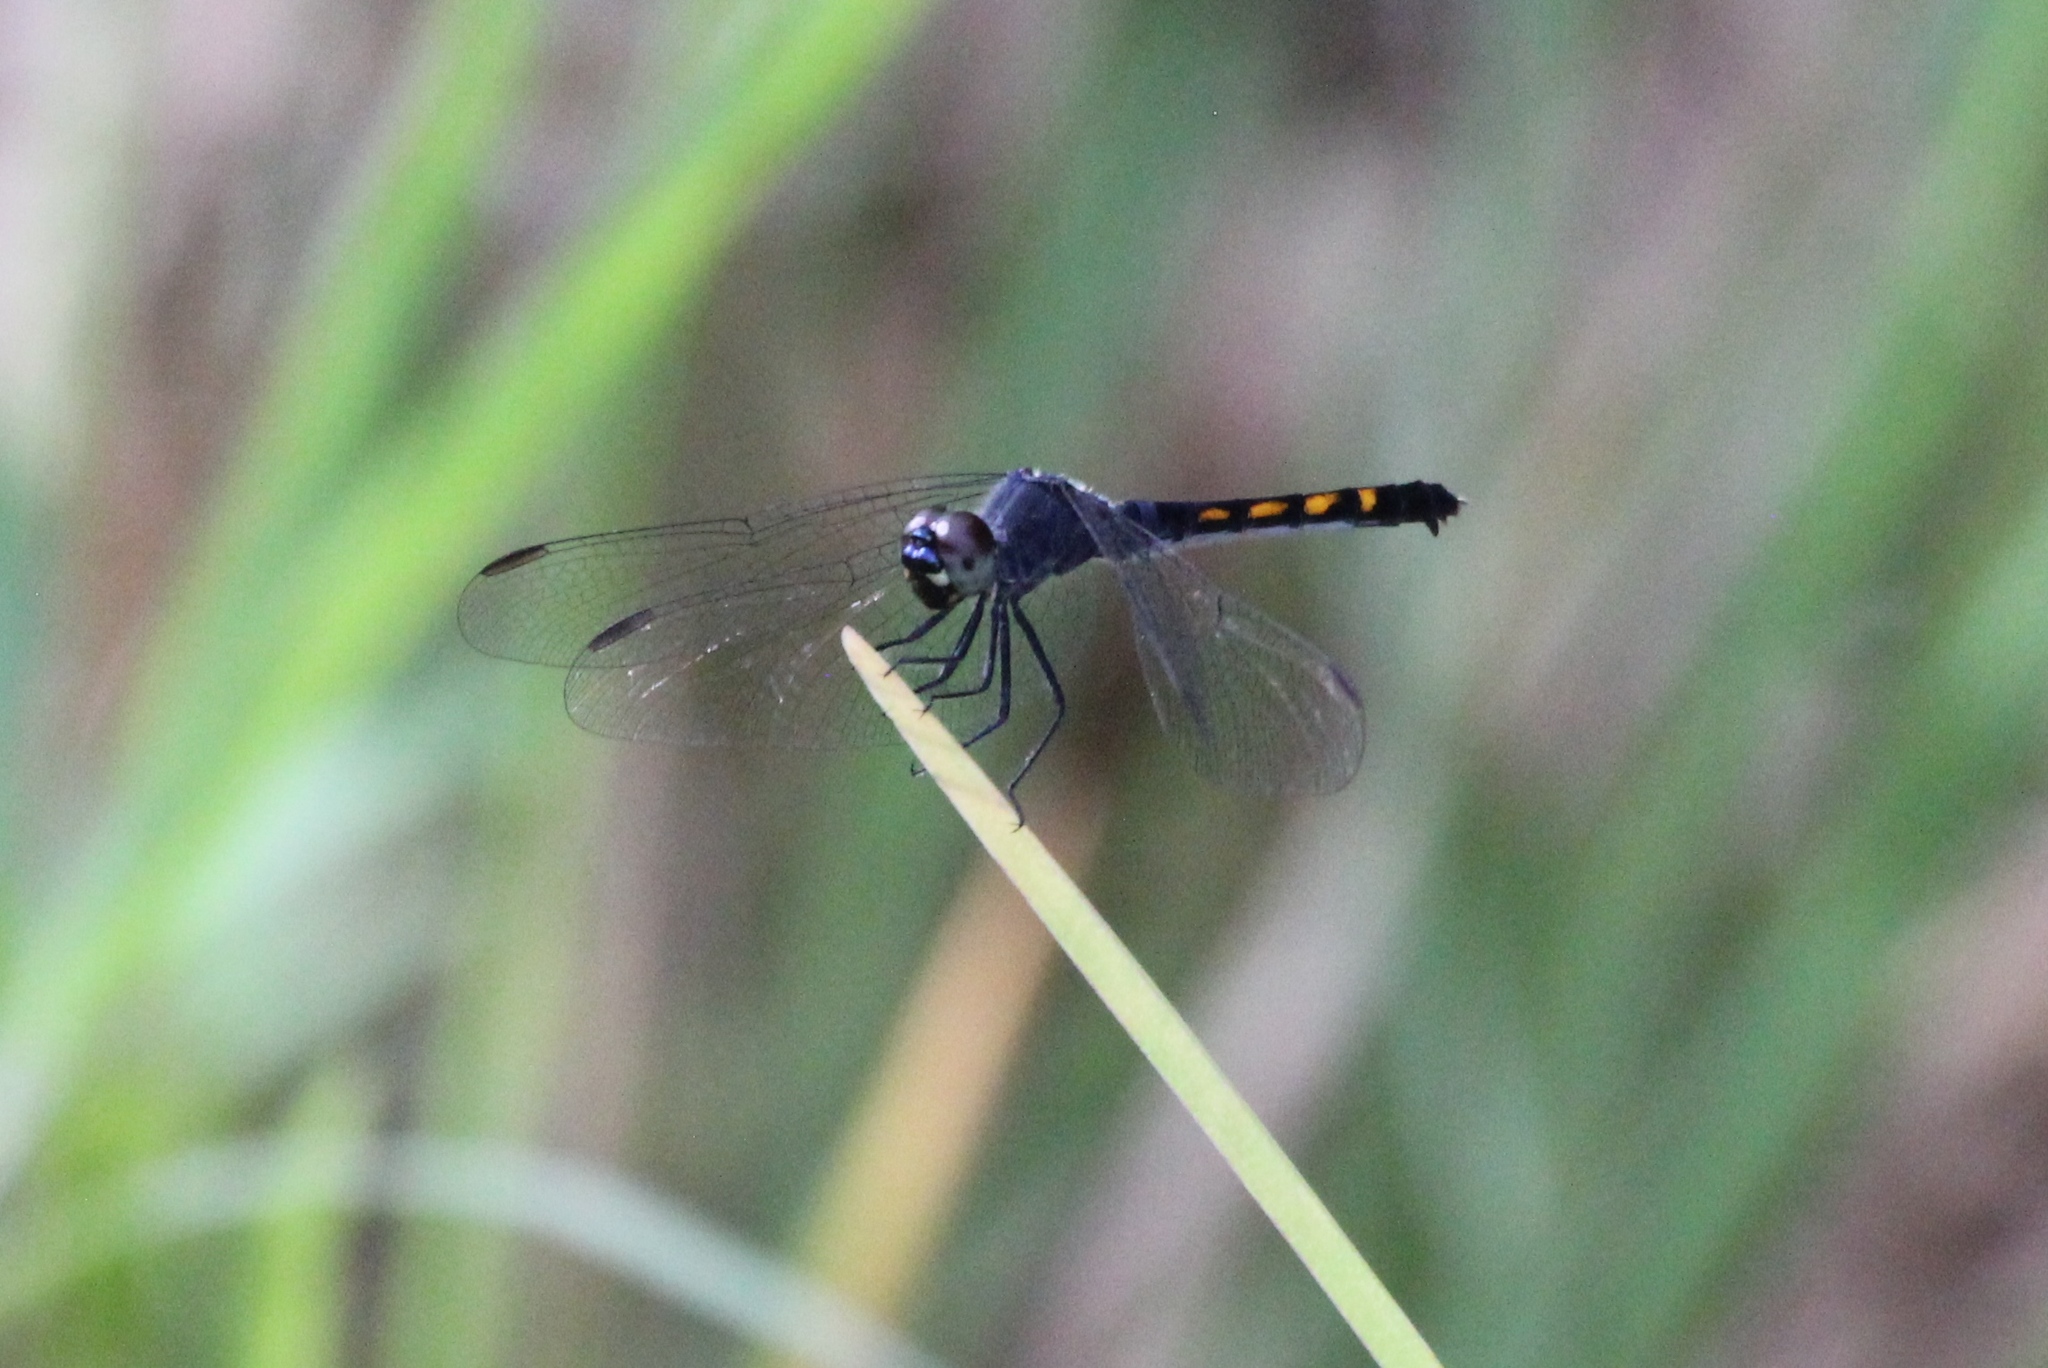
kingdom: Animalia
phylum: Arthropoda
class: Insecta
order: Odonata
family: Libellulidae
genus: Erythrodiplax
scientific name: Erythrodiplax berenice
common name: Seaside dragonlet
